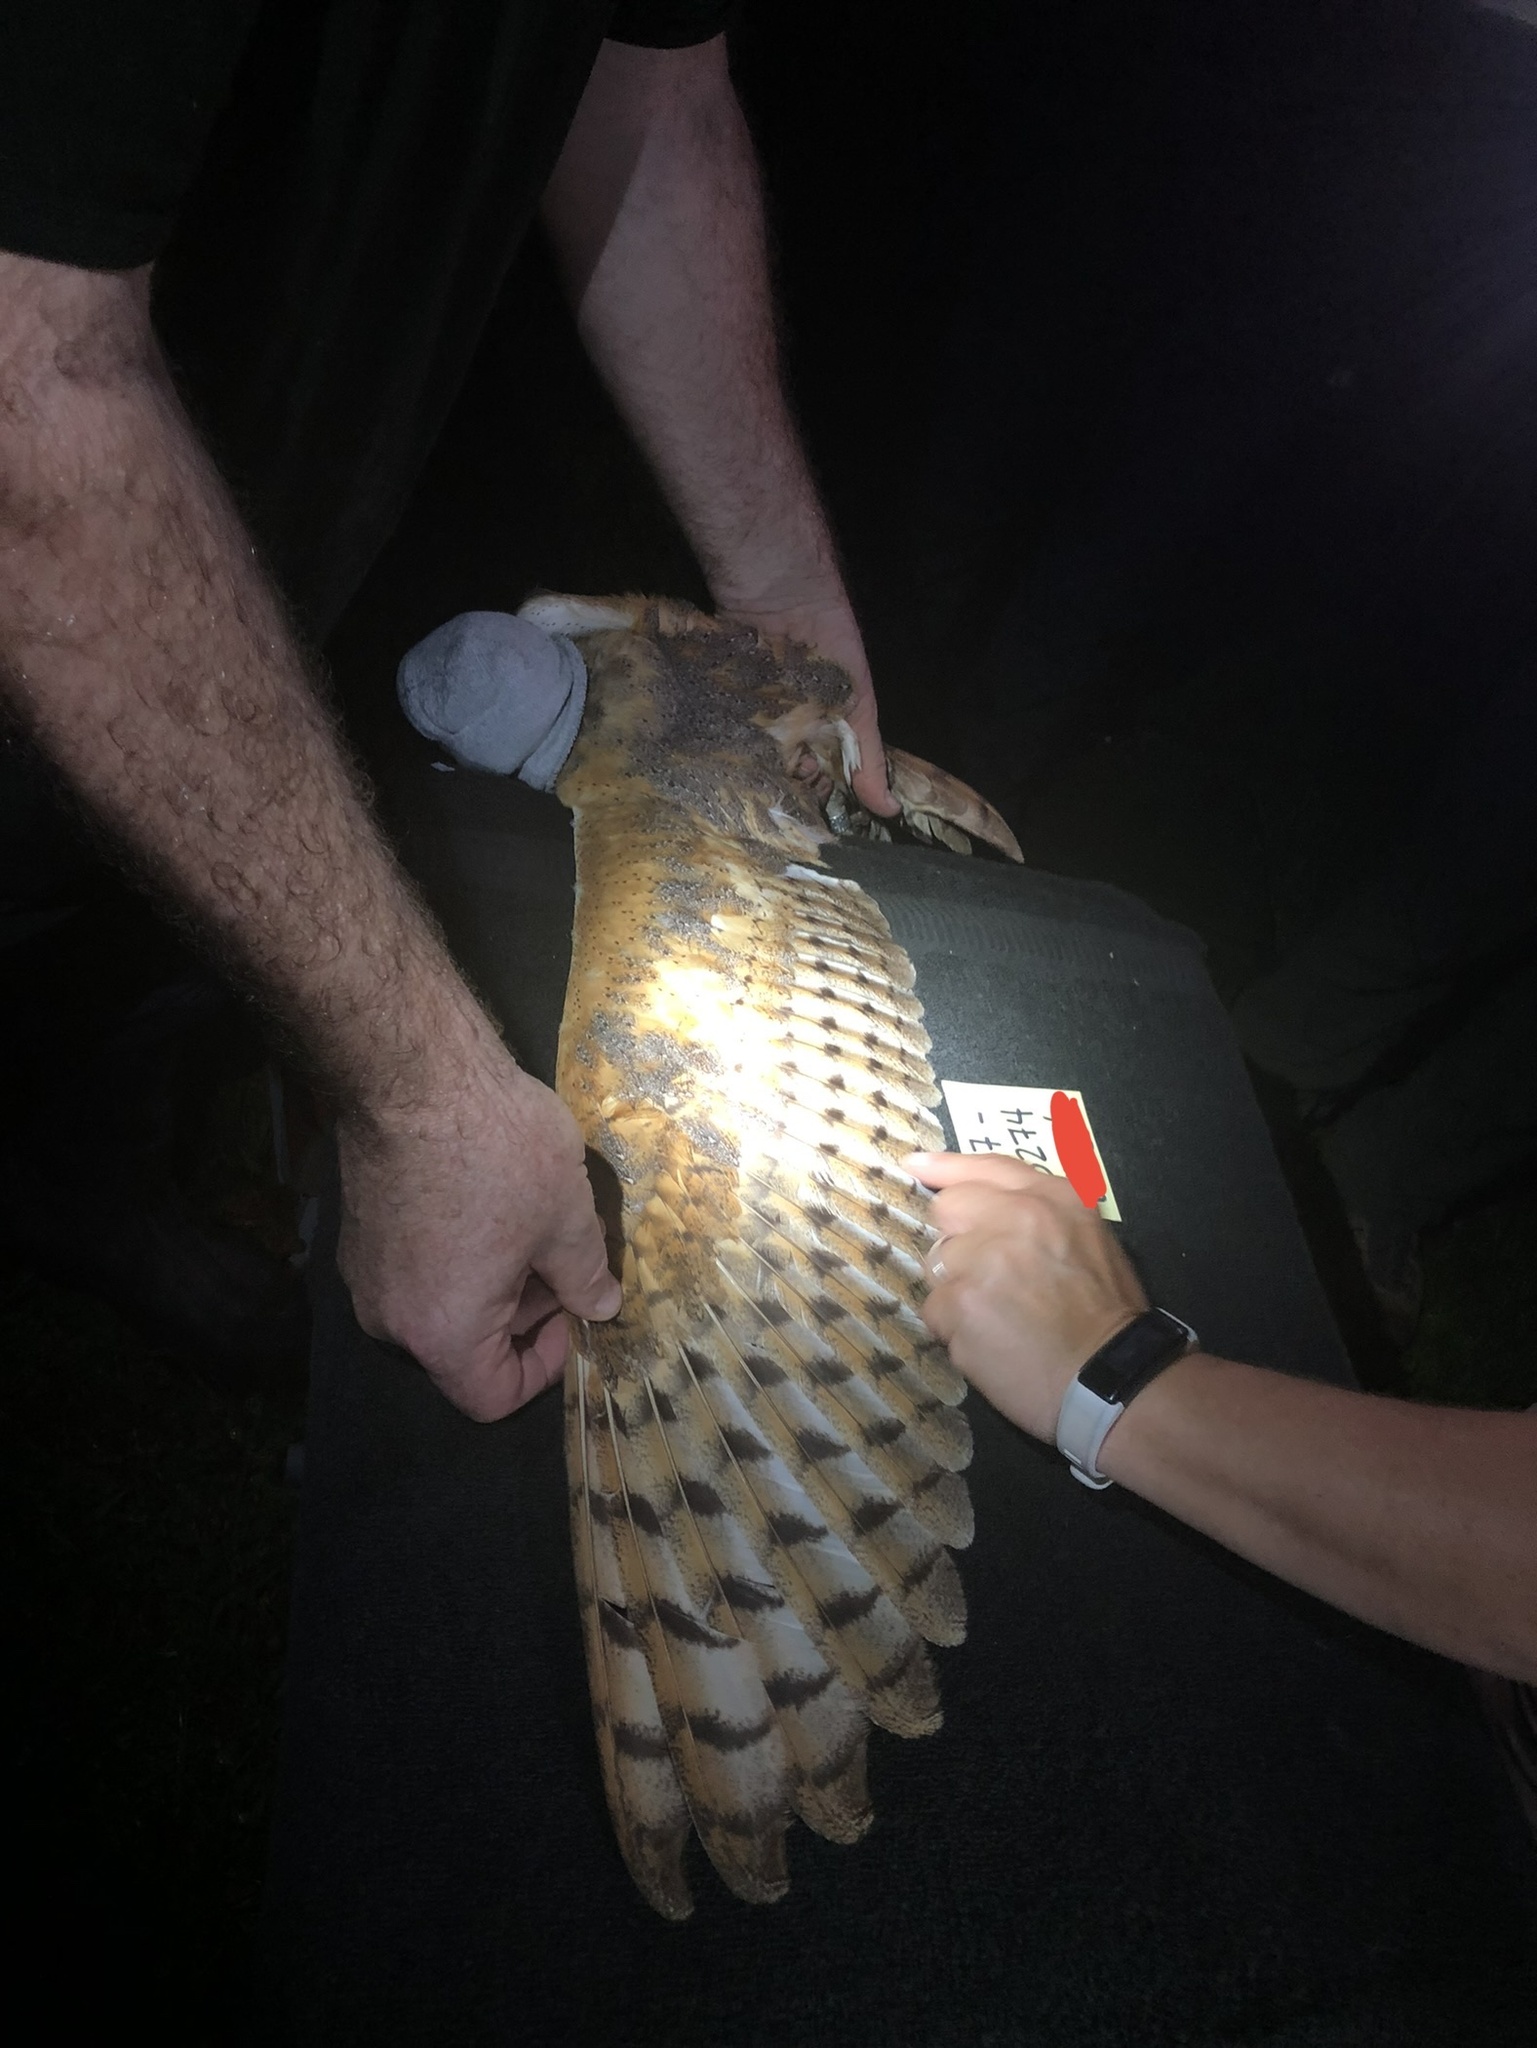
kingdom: Animalia
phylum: Chordata
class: Aves
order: Strigiformes
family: Tytonidae
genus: Tyto
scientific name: Tyto alba
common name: Barn owl
